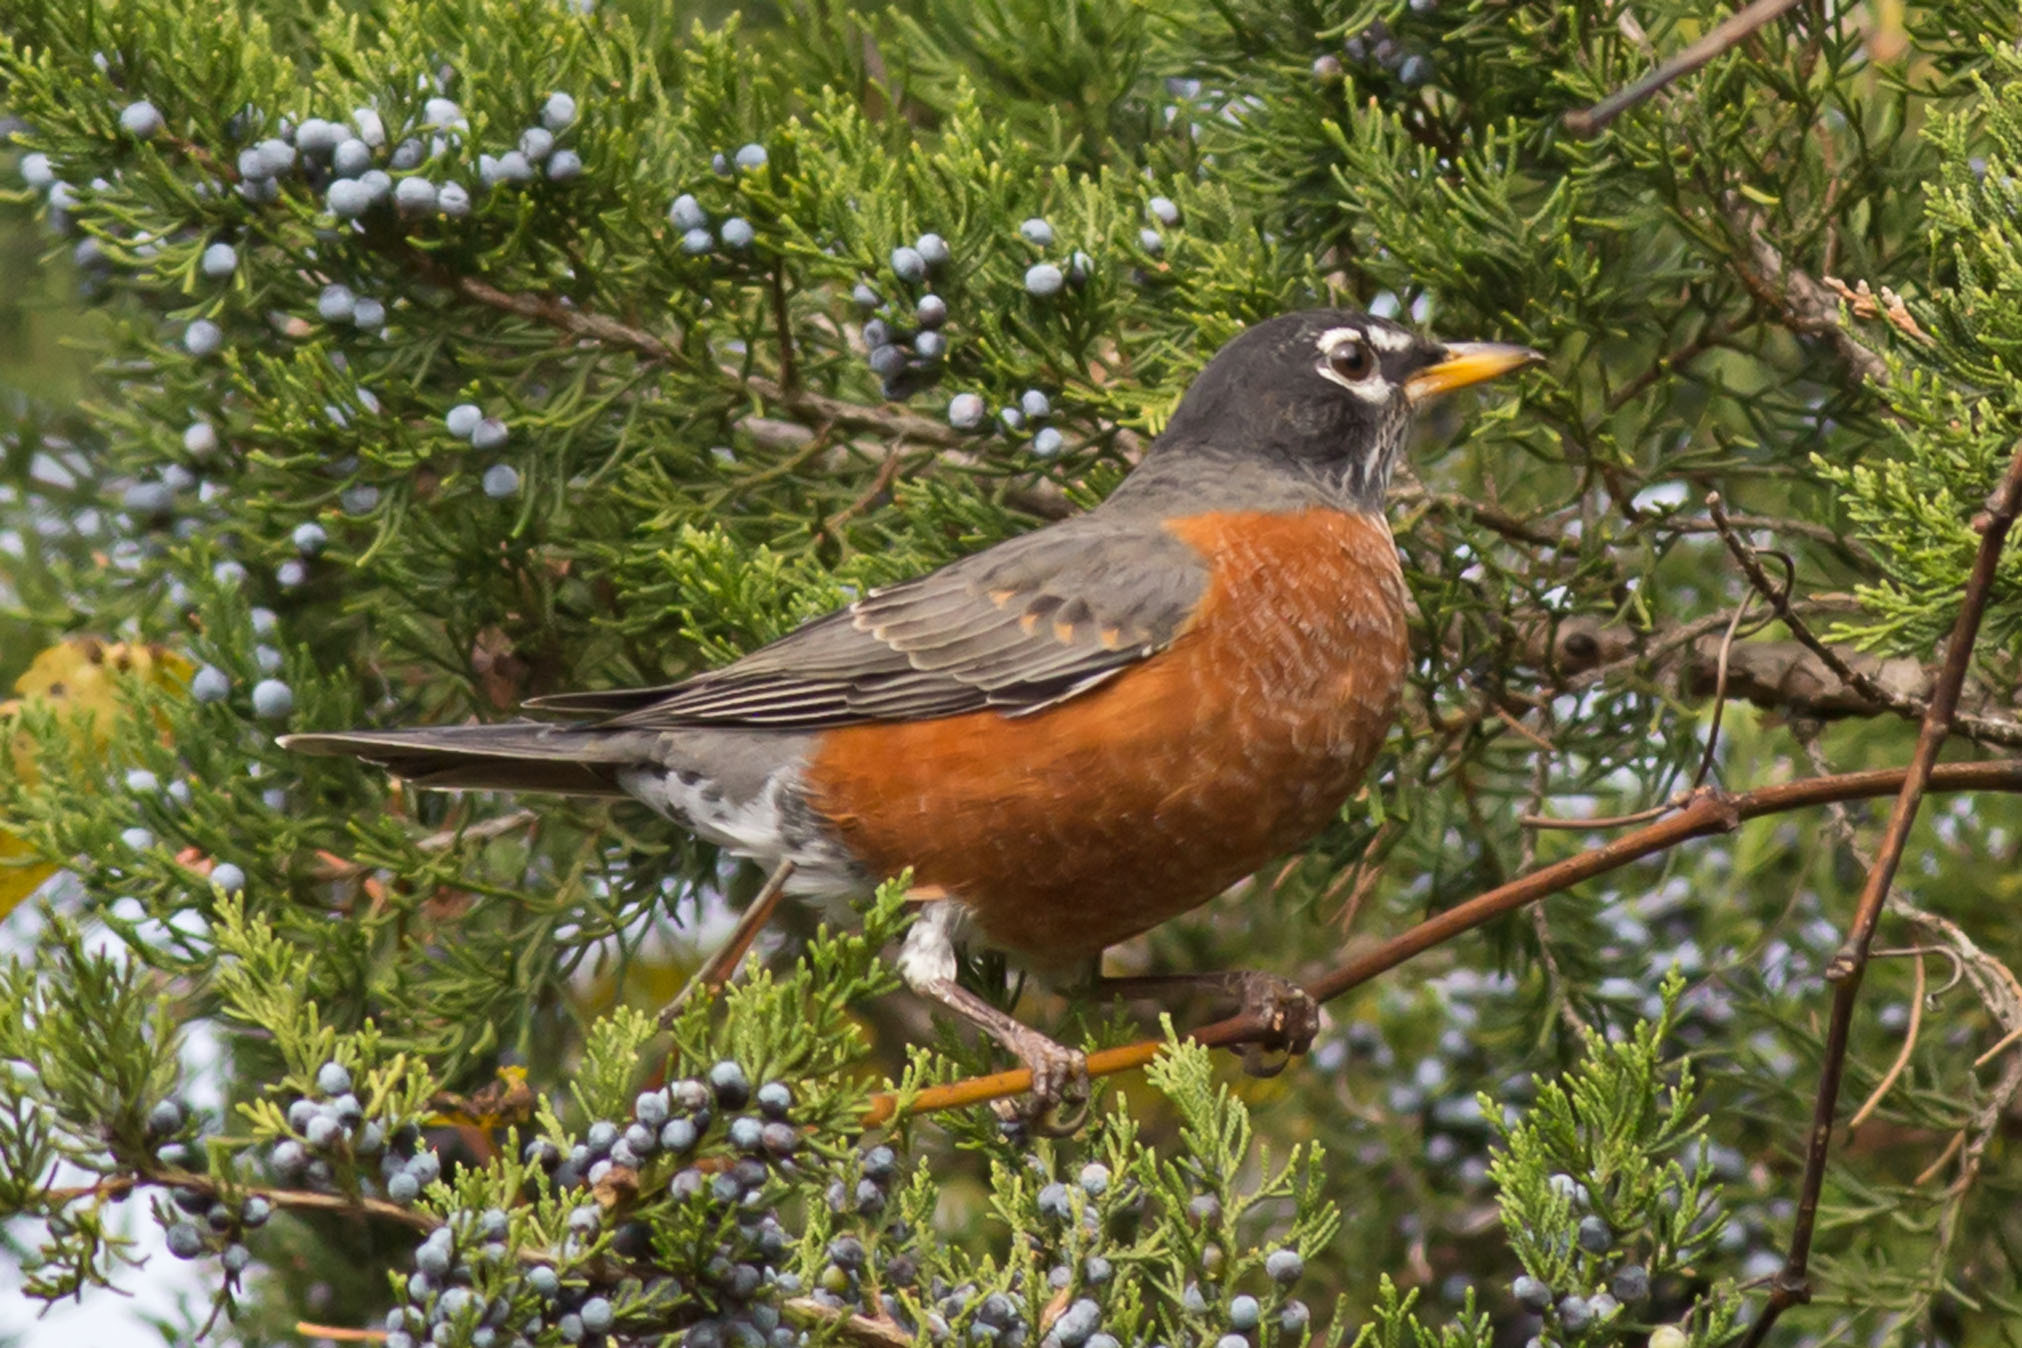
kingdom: Animalia
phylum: Chordata
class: Aves
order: Passeriformes
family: Turdidae
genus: Turdus
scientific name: Turdus migratorius
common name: American robin
